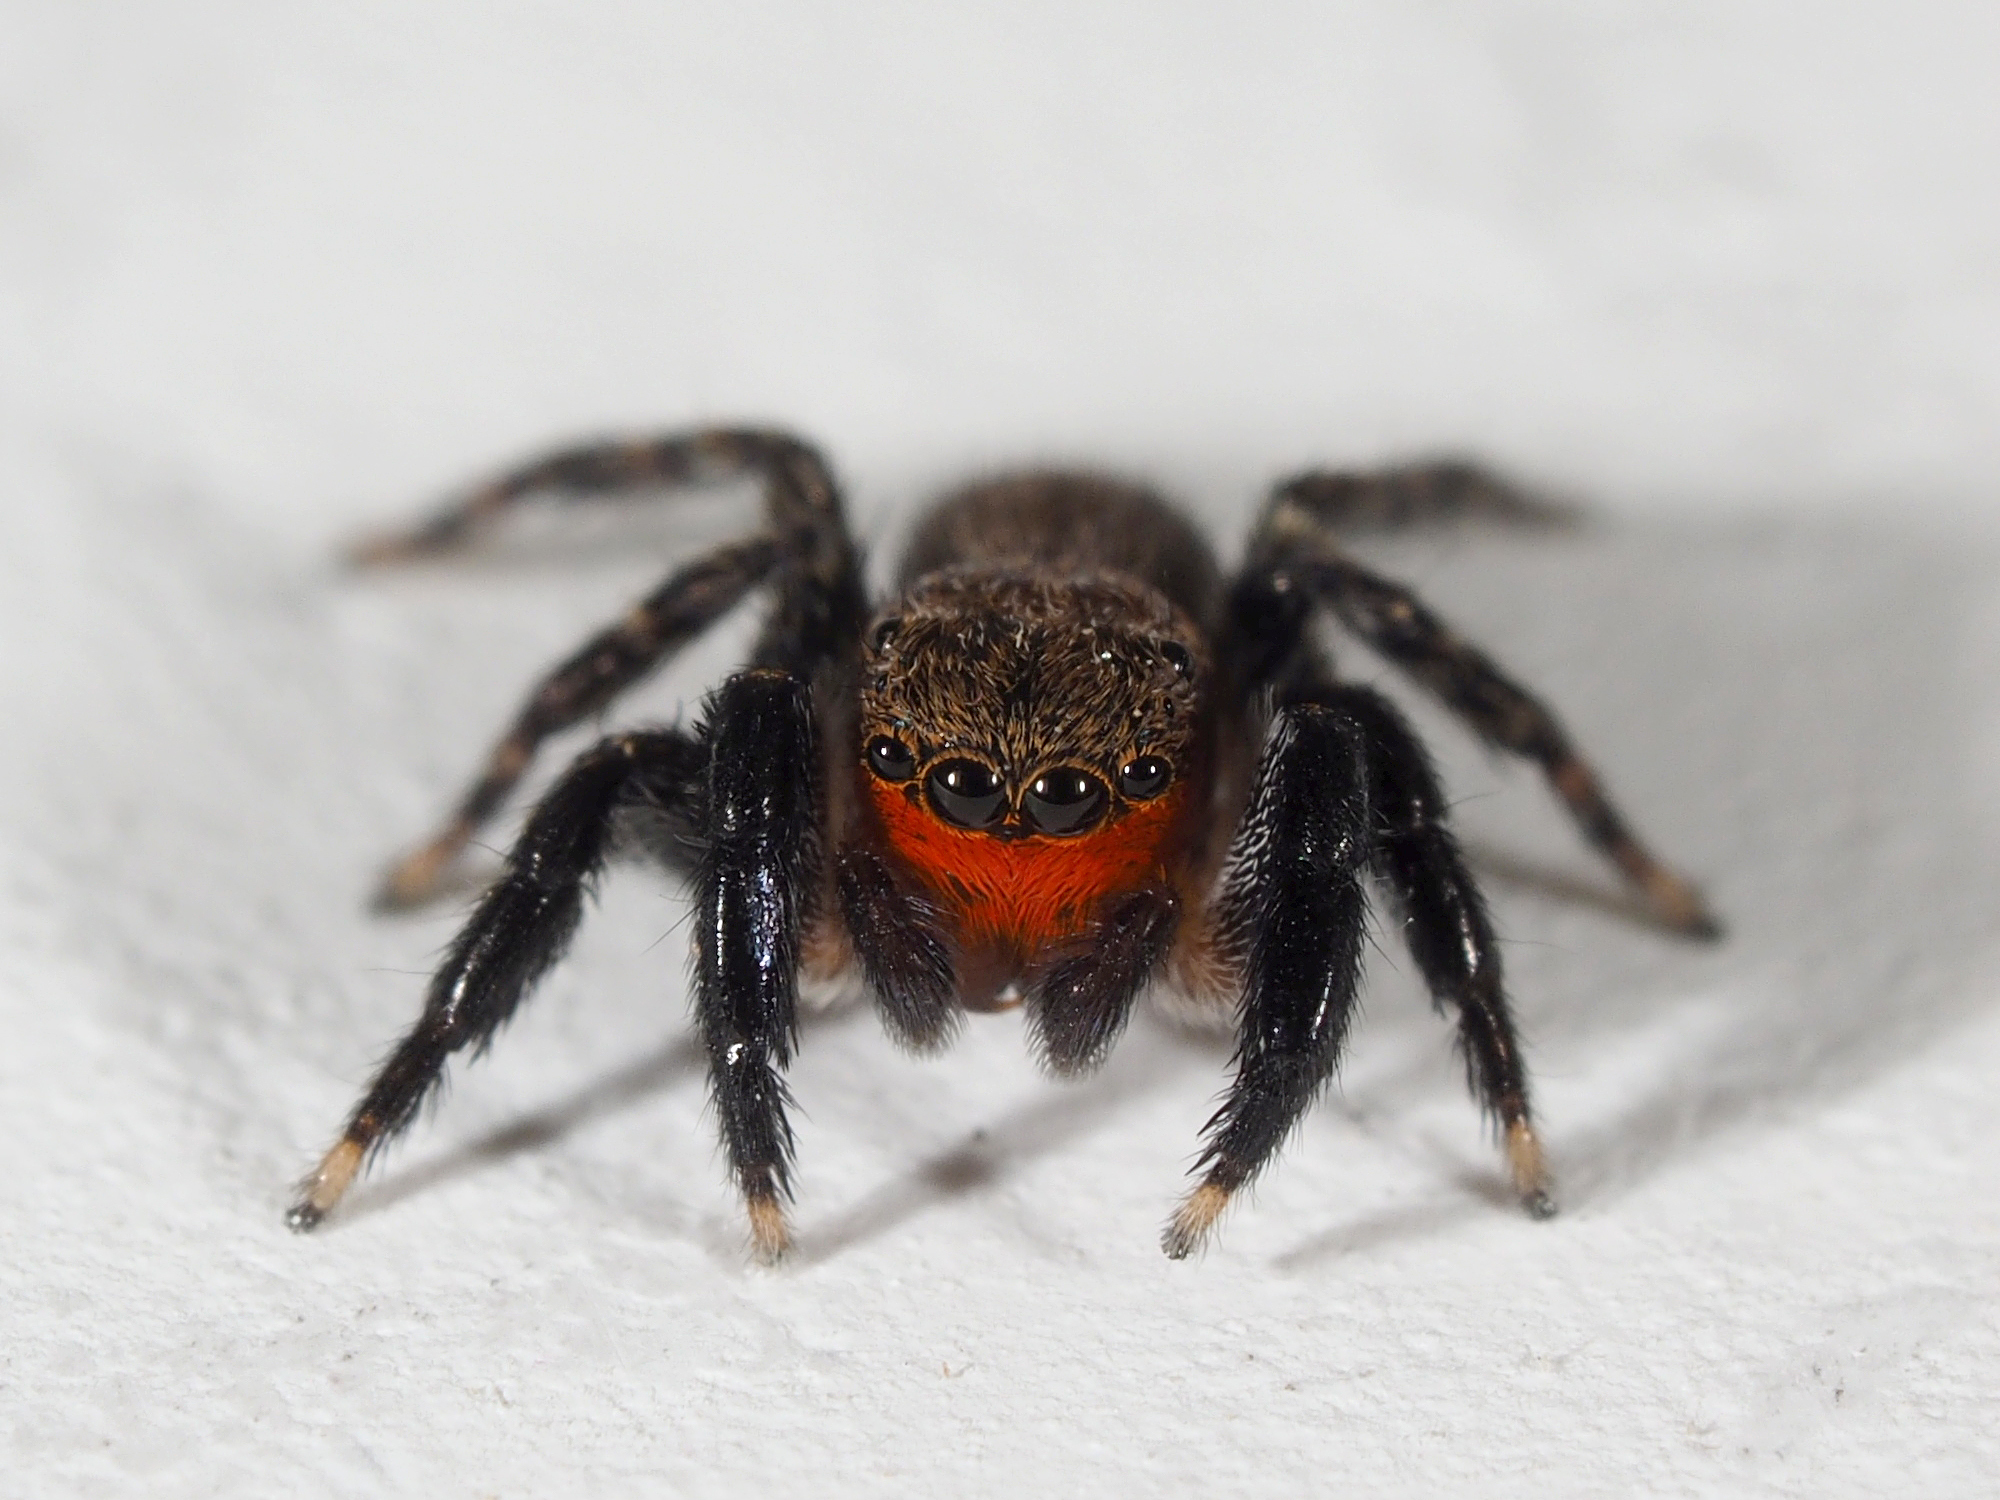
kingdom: Animalia
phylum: Arthropoda
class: Arachnida
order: Araneae
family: Salticidae
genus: Euophrys
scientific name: Euophrys rufibarbis
